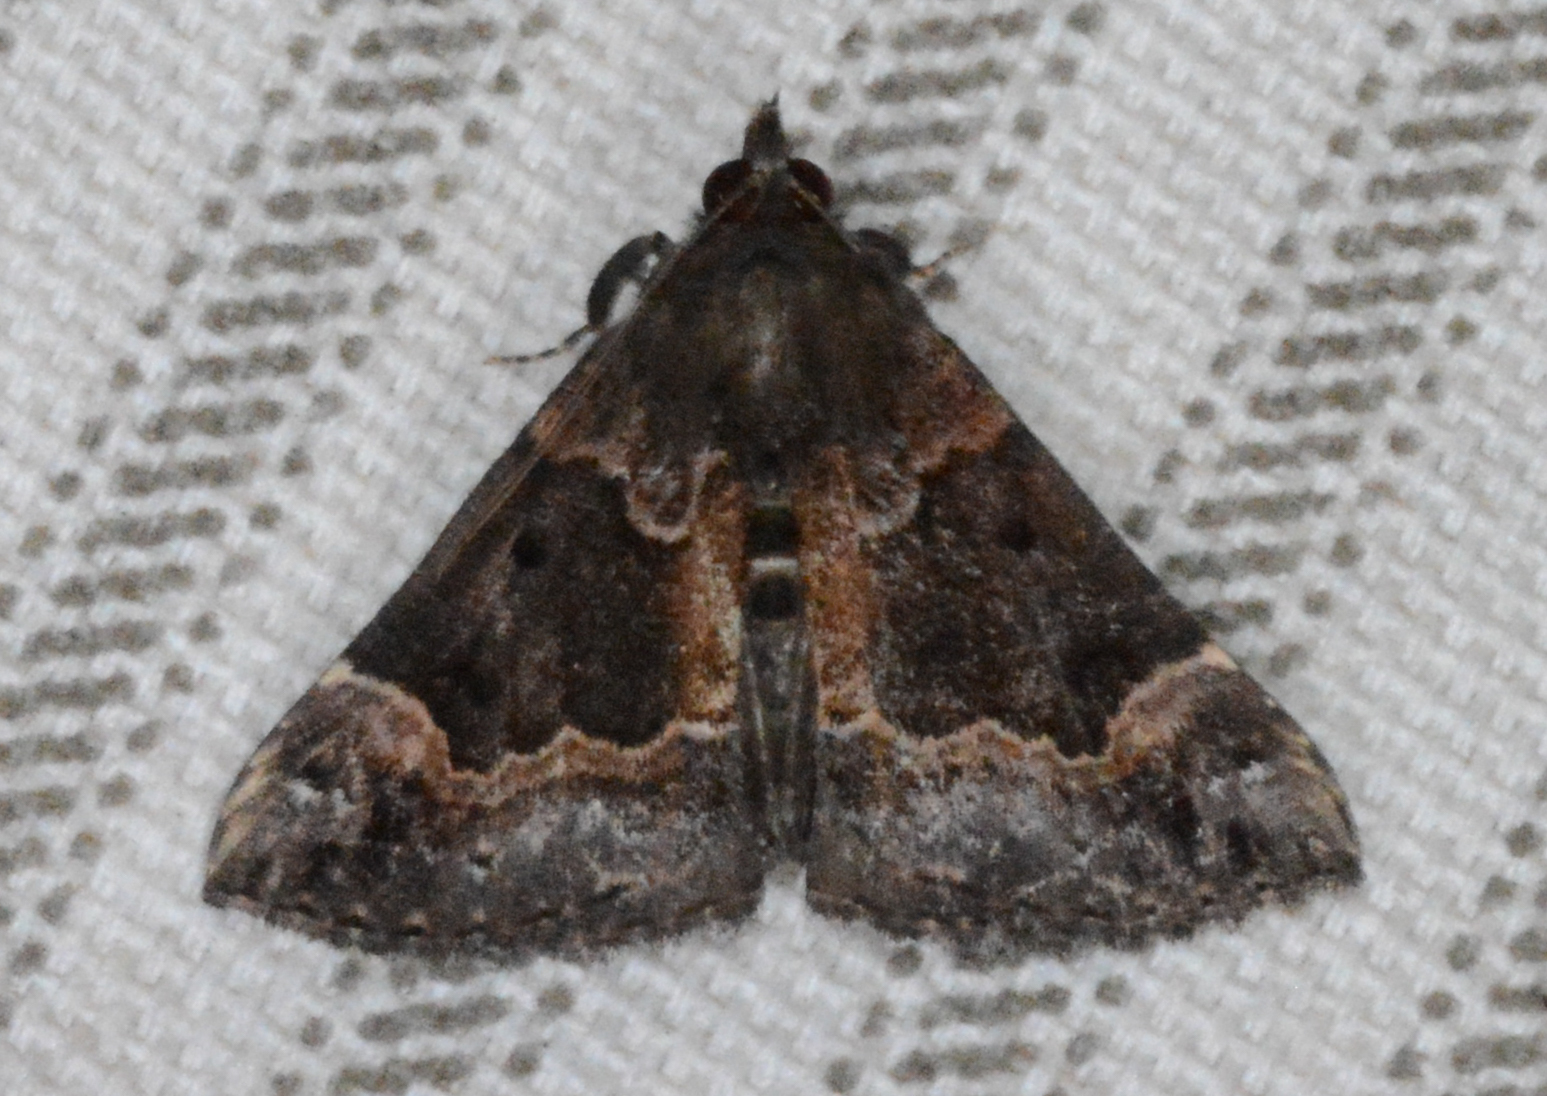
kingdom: Animalia
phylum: Arthropoda
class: Insecta
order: Lepidoptera
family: Erebidae
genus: Hypena
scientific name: Hypena palparia
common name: Mottled bomolocha moth
